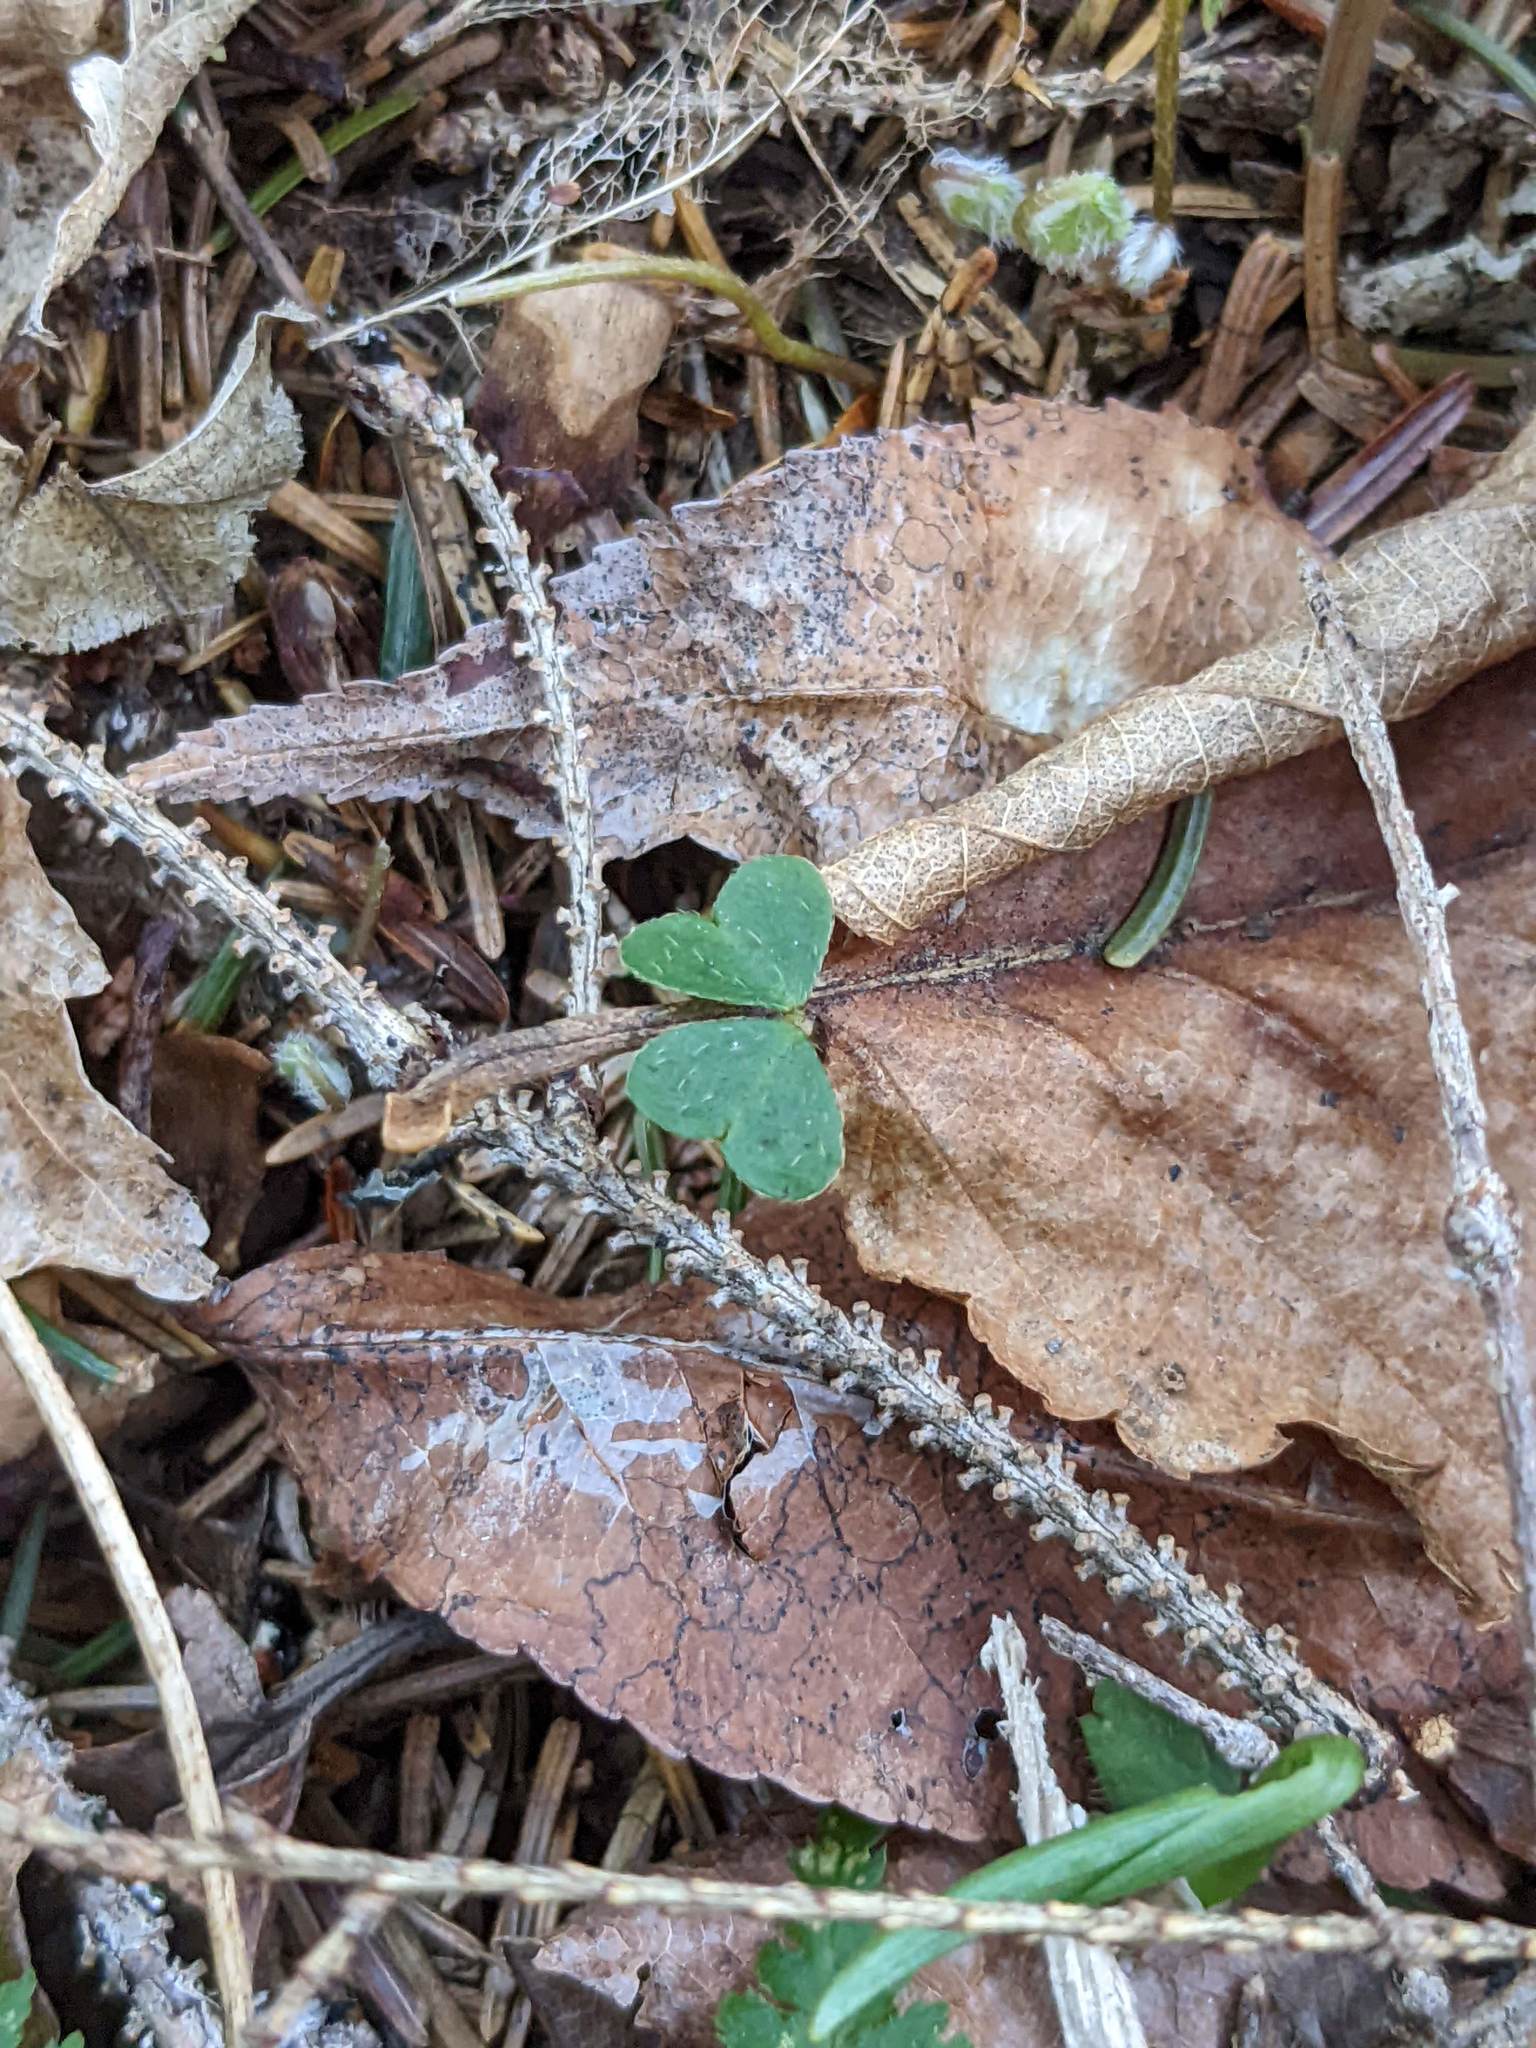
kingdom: Plantae
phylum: Tracheophyta
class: Magnoliopsida
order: Oxalidales
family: Oxalidaceae
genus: Oxalis
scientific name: Oxalis montana
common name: American wood-sorrel
